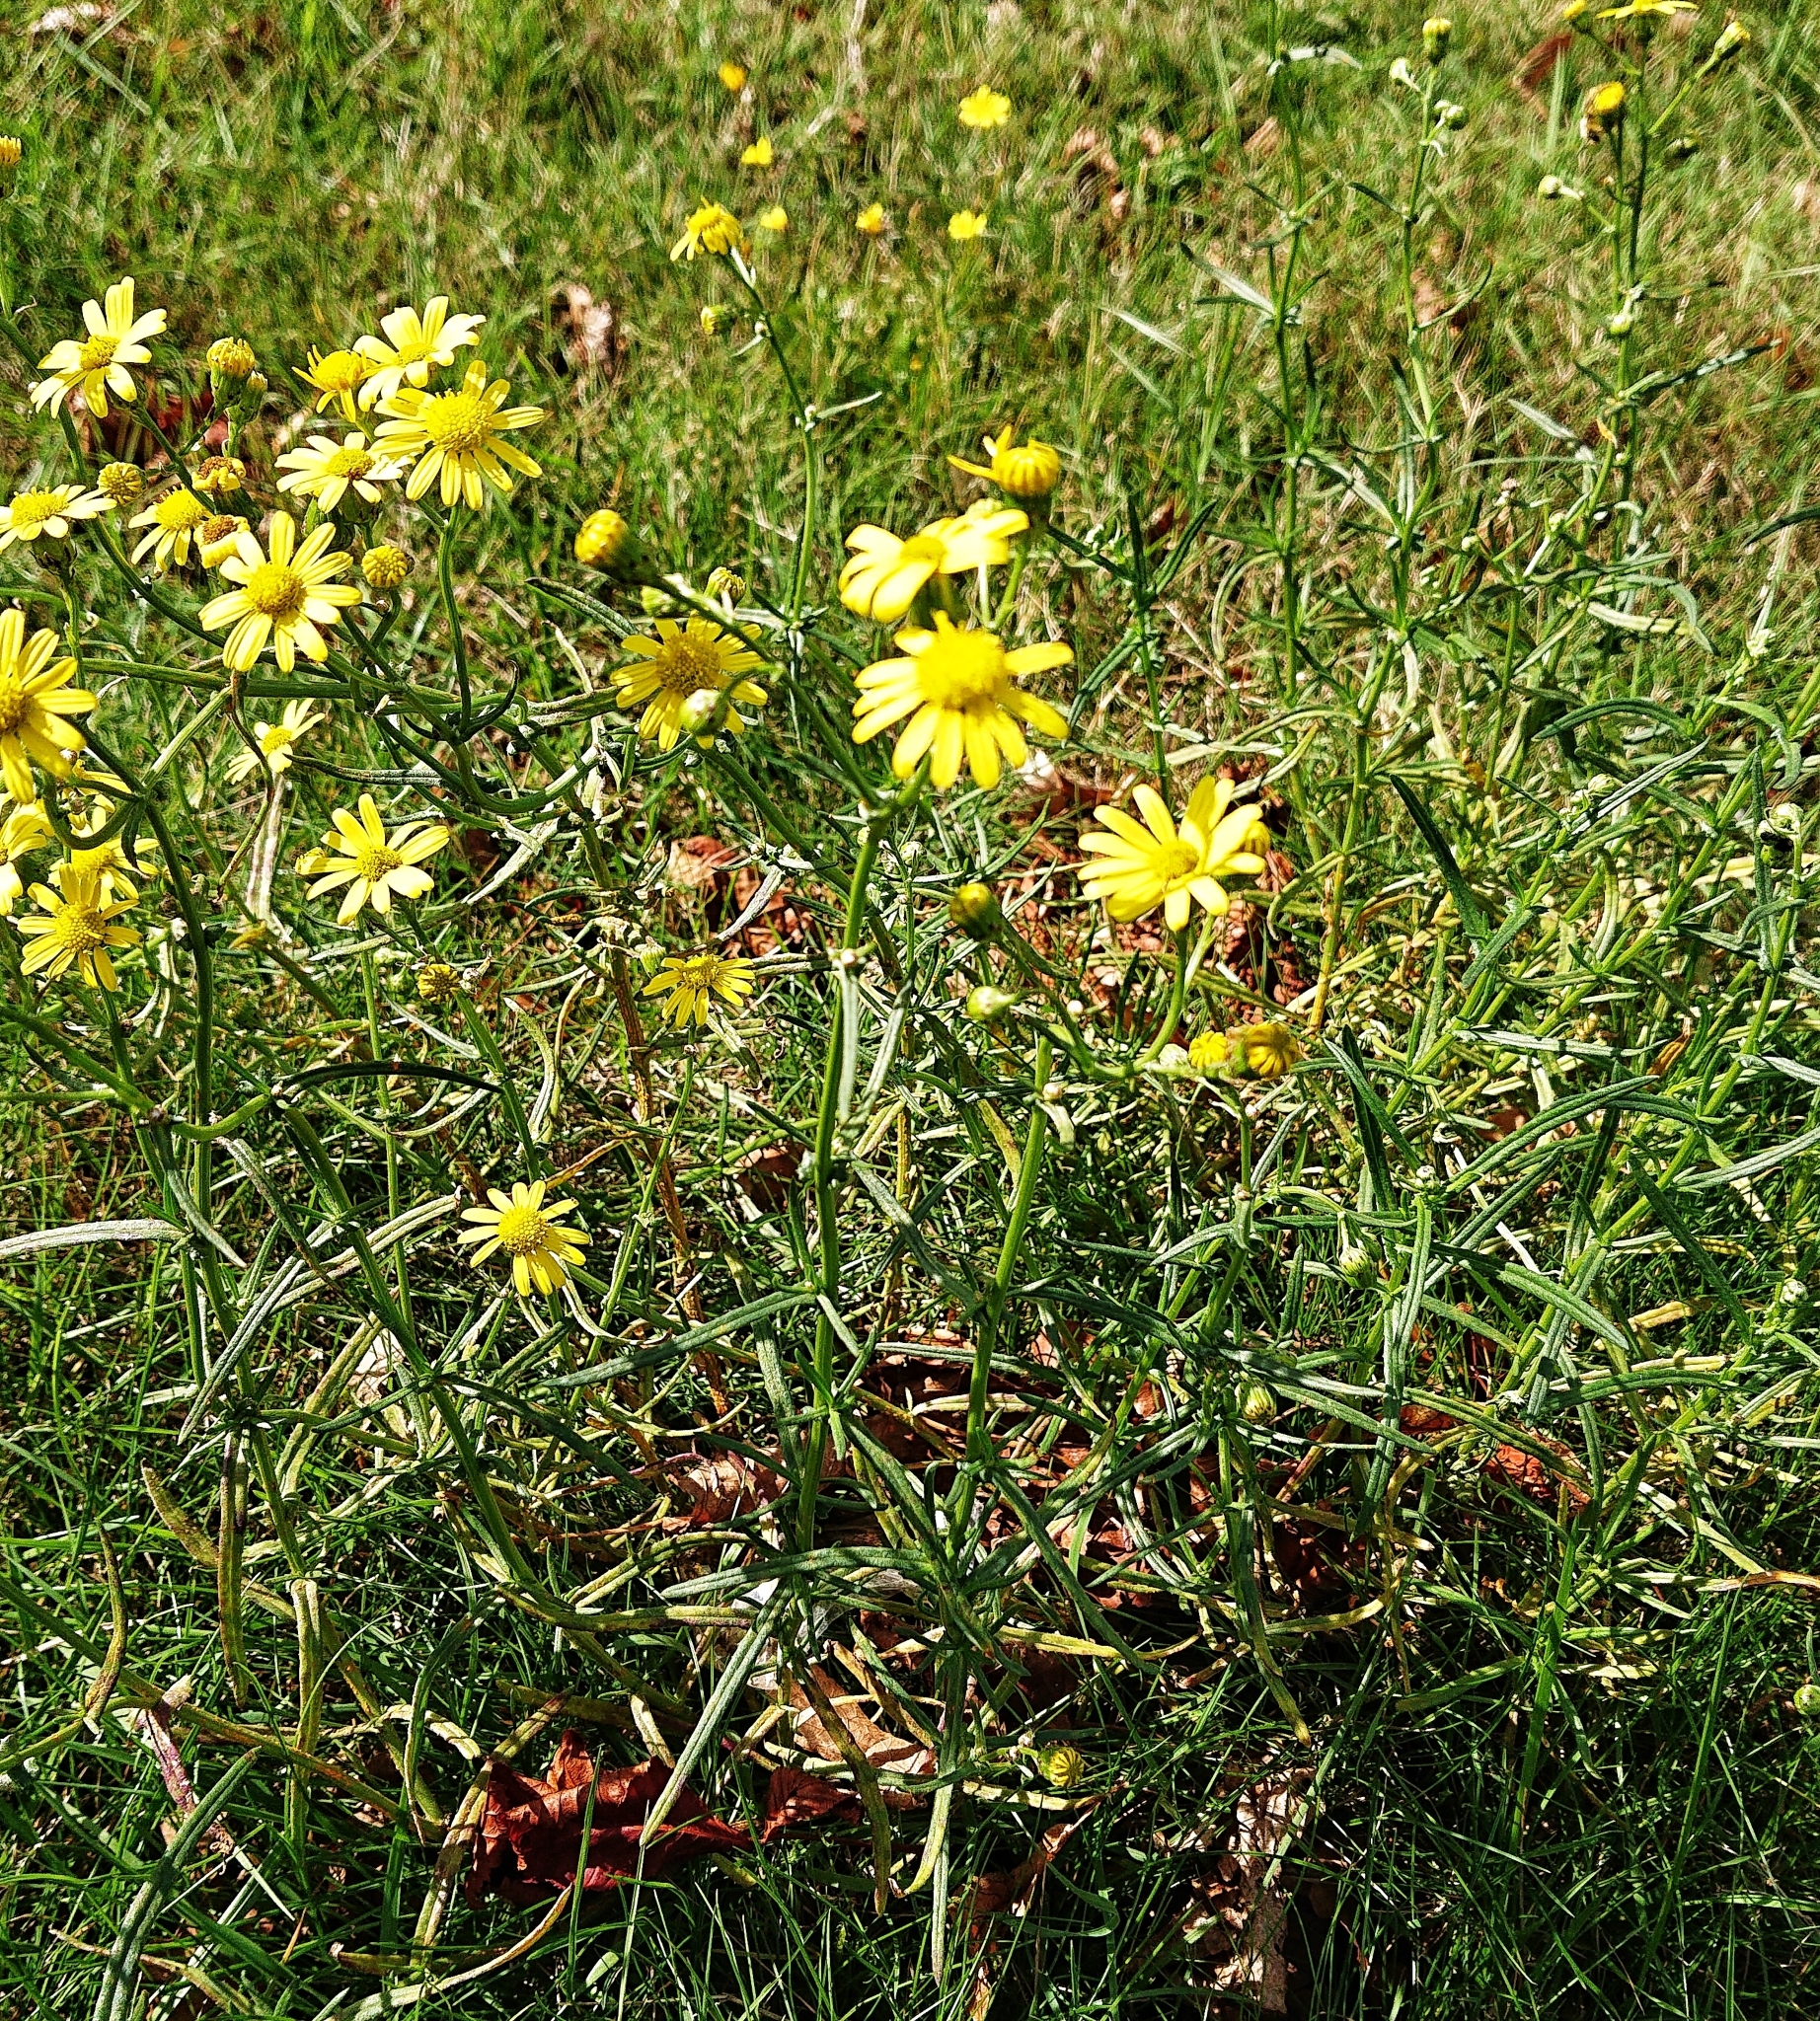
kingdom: Plantae
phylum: Tracheophyta
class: Magnoliopsida
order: Asterales
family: Asteraceae
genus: Senecio
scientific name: Senecio inaequidens
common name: Narrow-leaved ragwort
